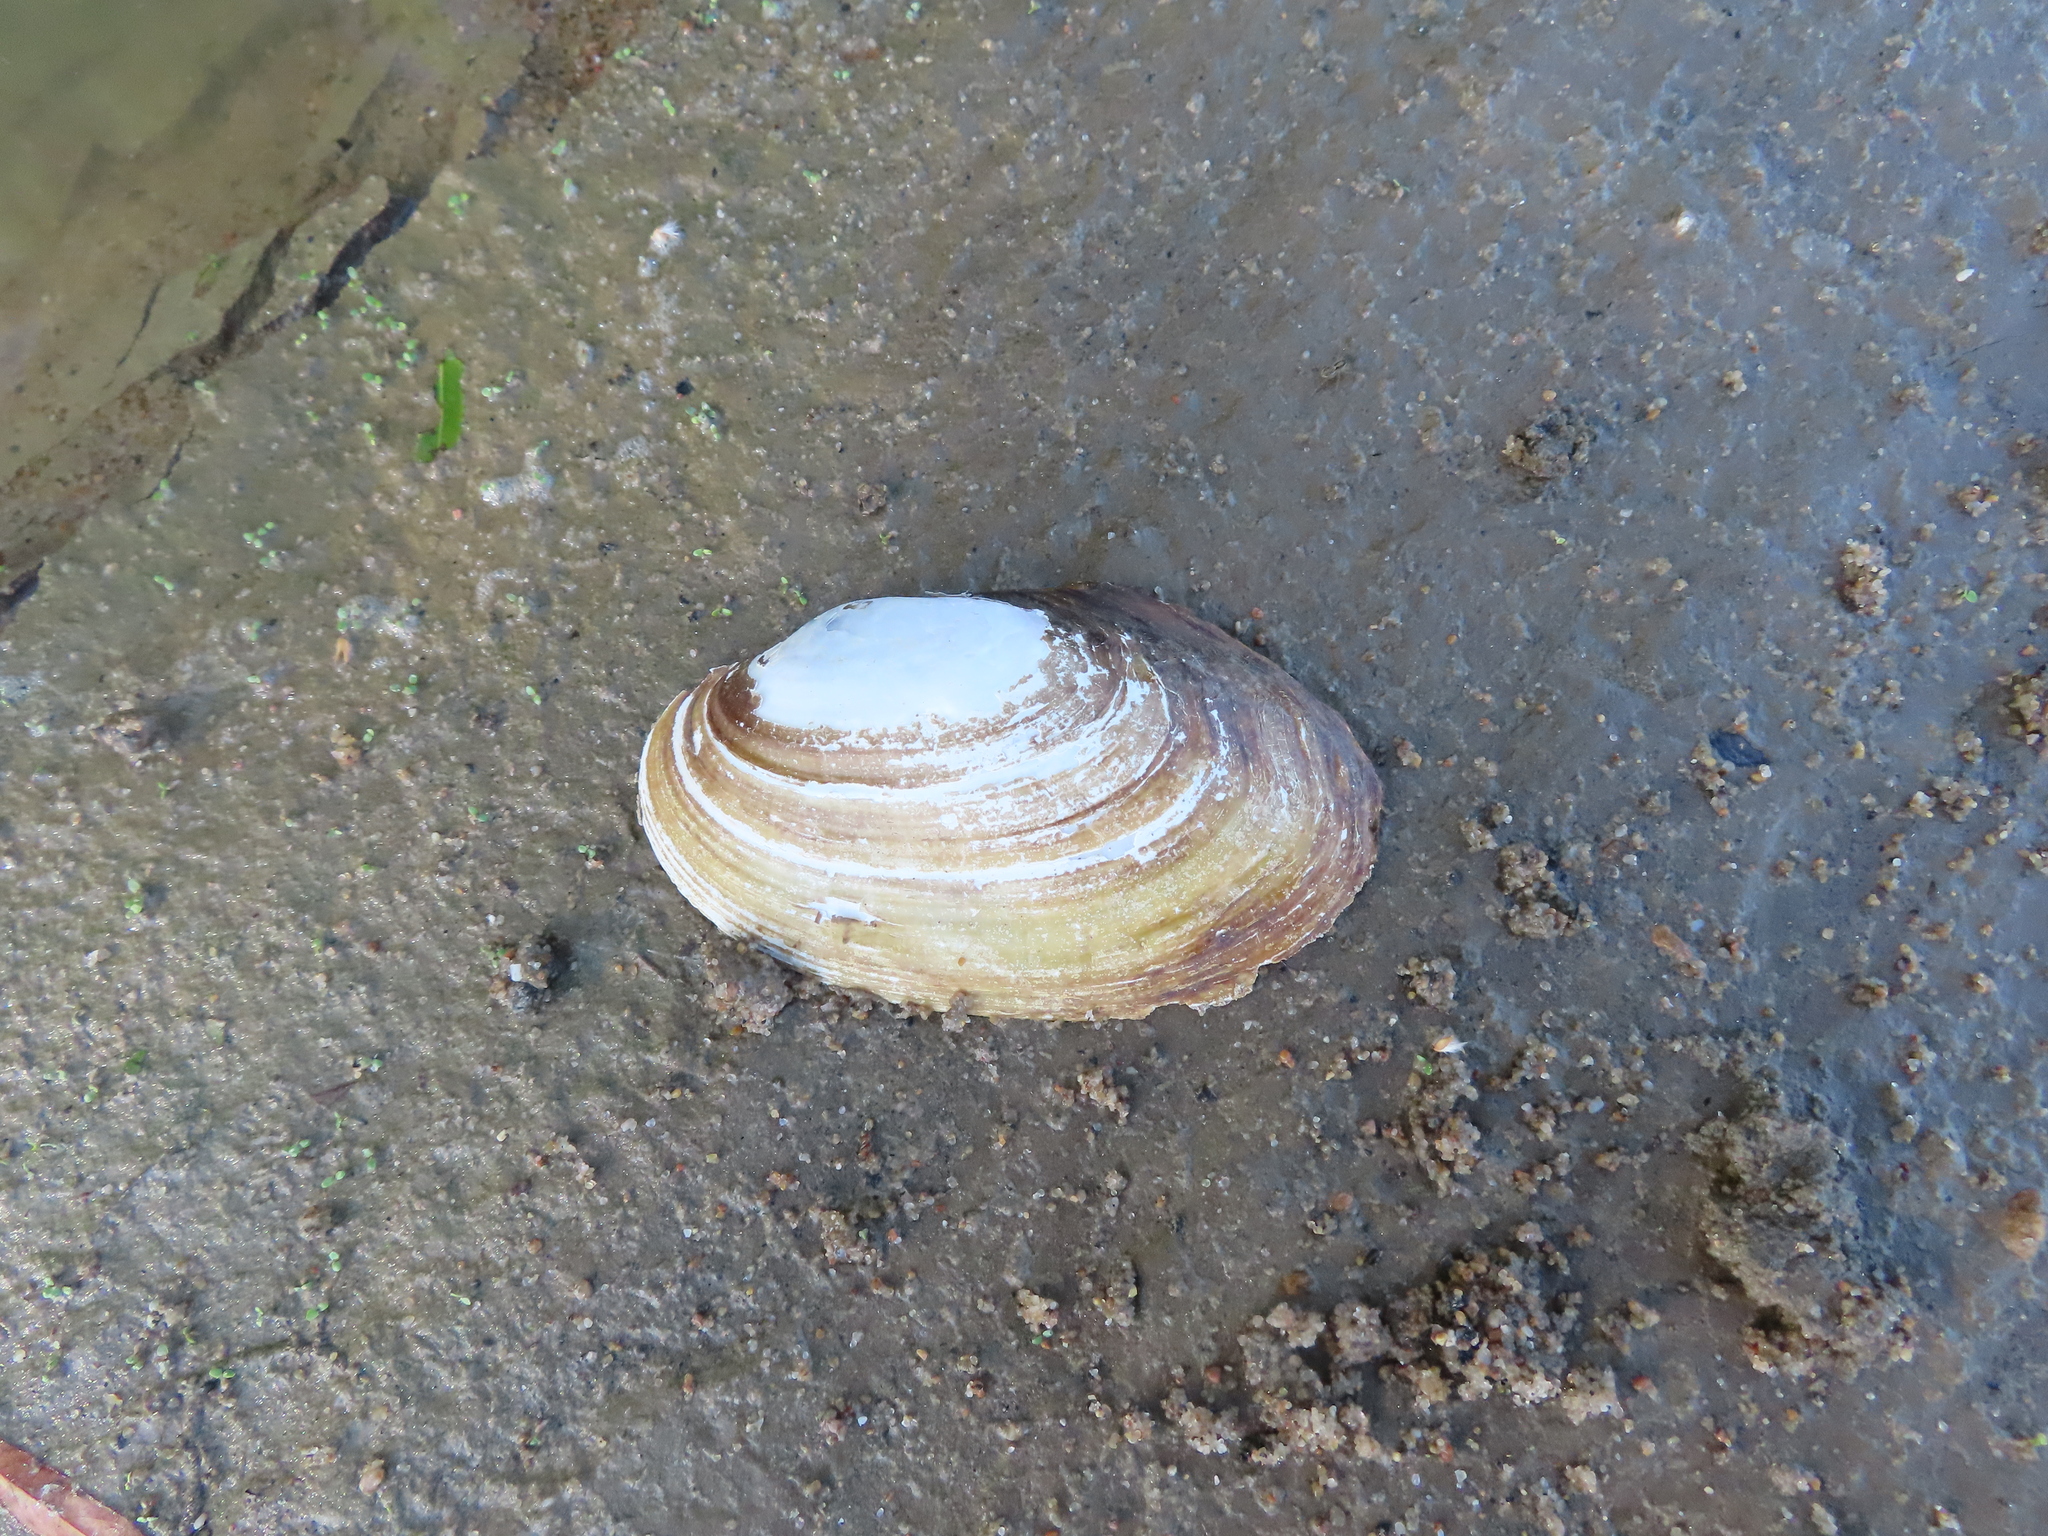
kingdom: Animalia
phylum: Mollusca
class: Bivalvia
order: Unionida
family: Unionidae
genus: Potamilus
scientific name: Potamilus fragilis
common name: Fragile papershell
